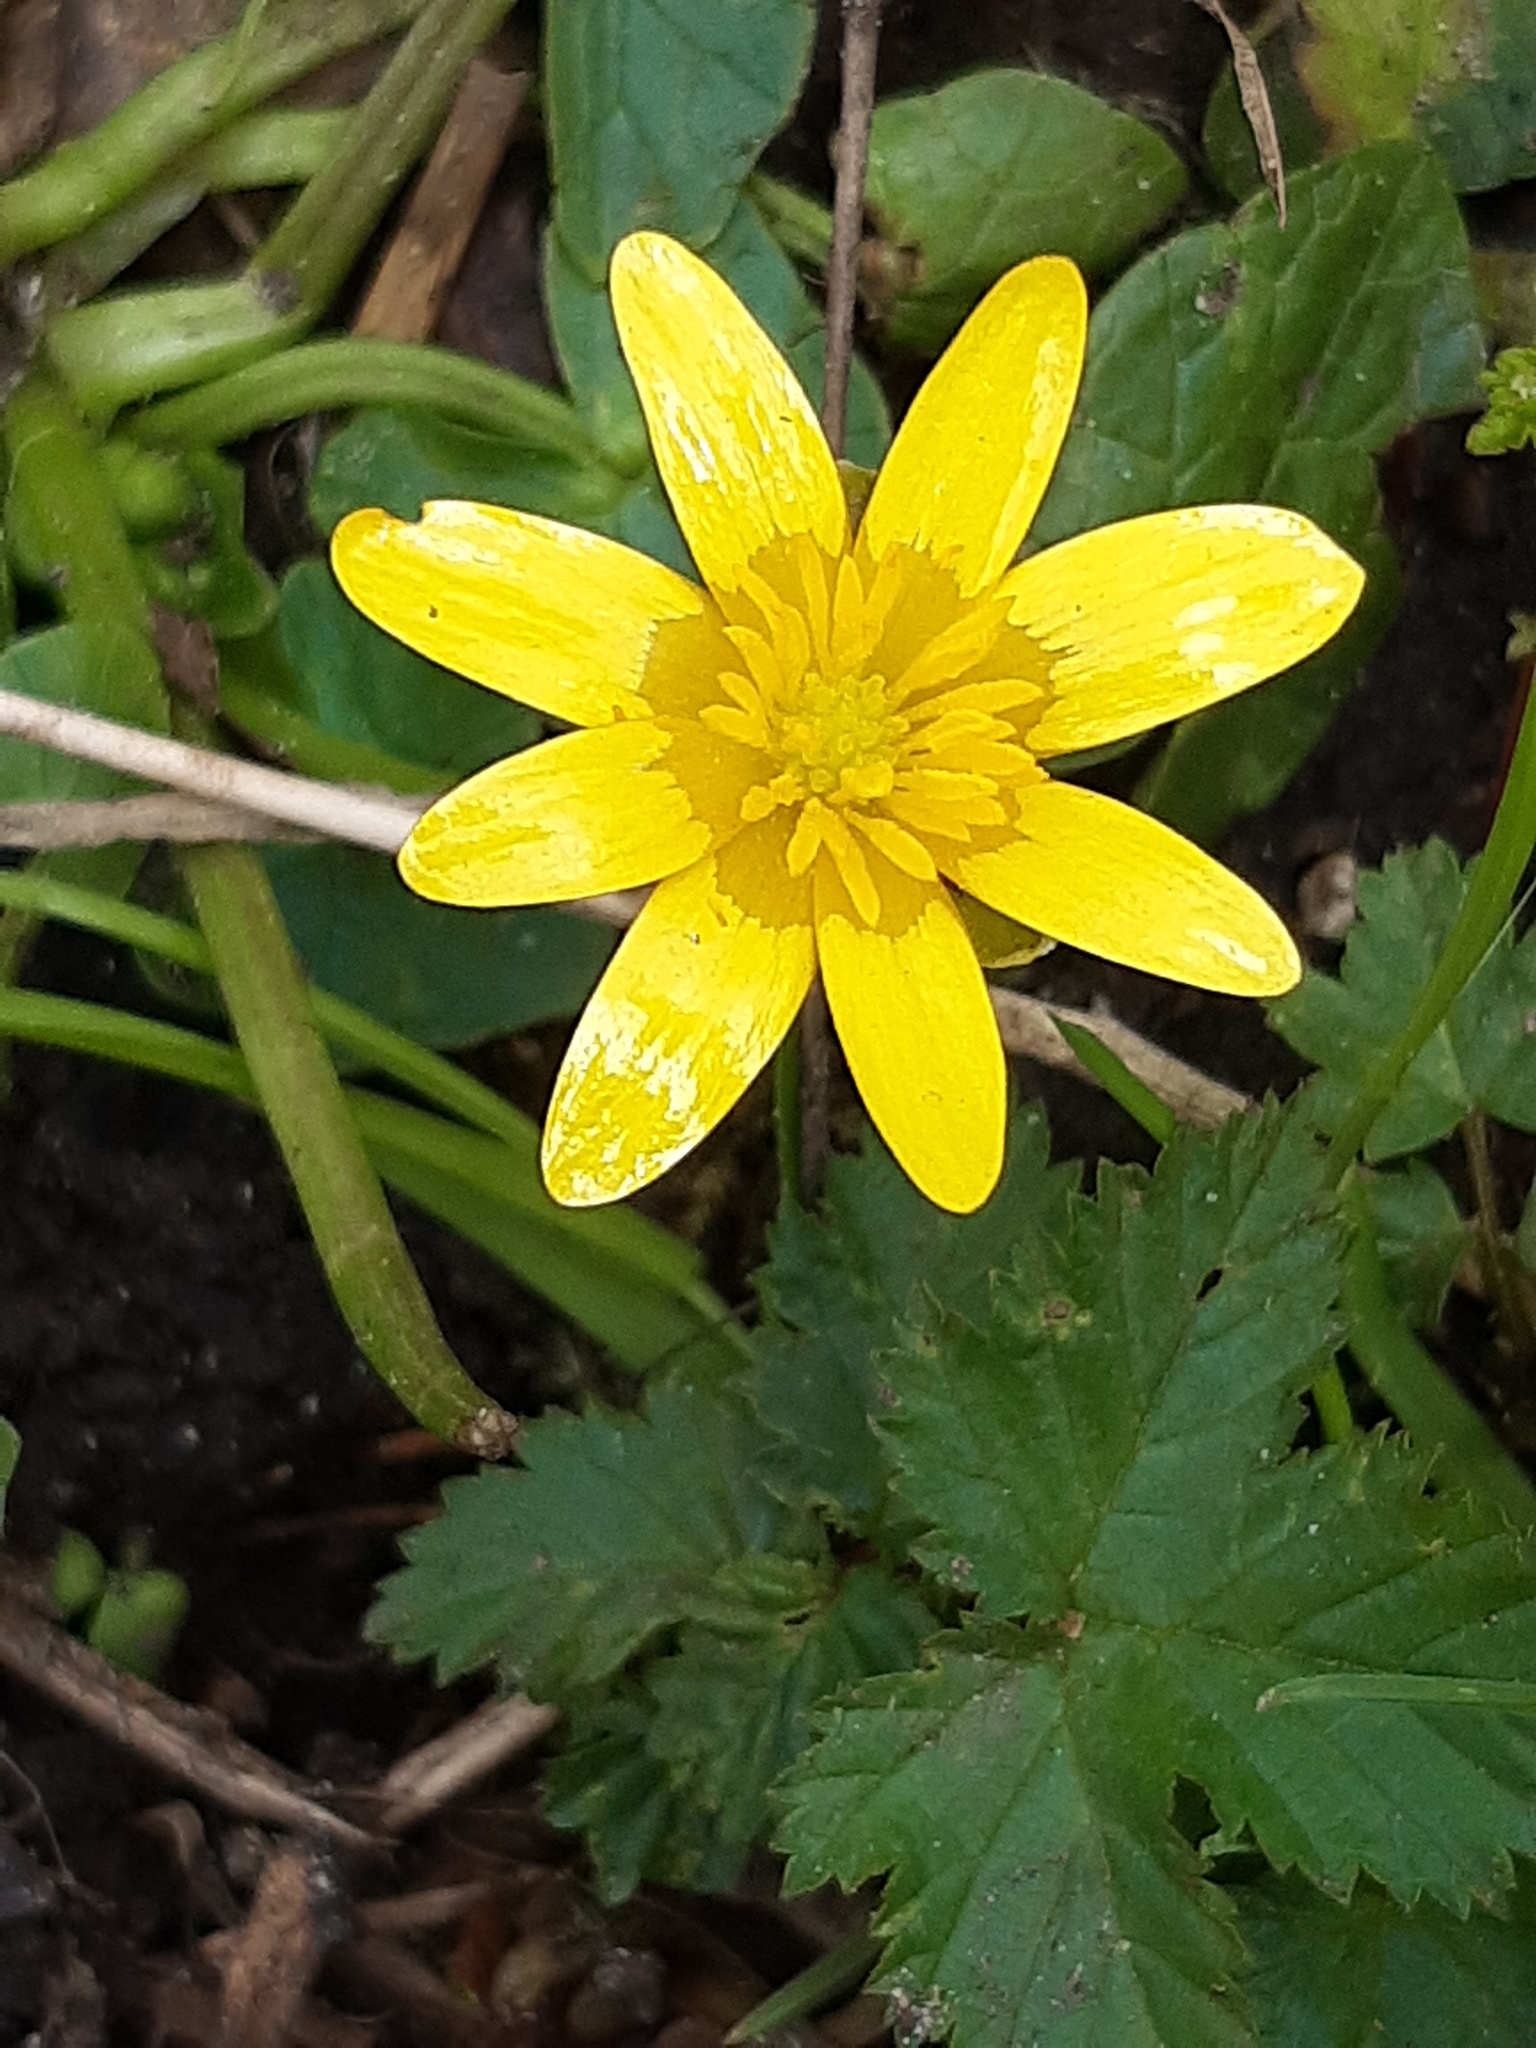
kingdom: Plantae
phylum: Tracheophyta
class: Magnoliopsida
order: Ranunculales
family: Ranunculaceae
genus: Ficaria
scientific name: Ficaria verna
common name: Lesser celandine
